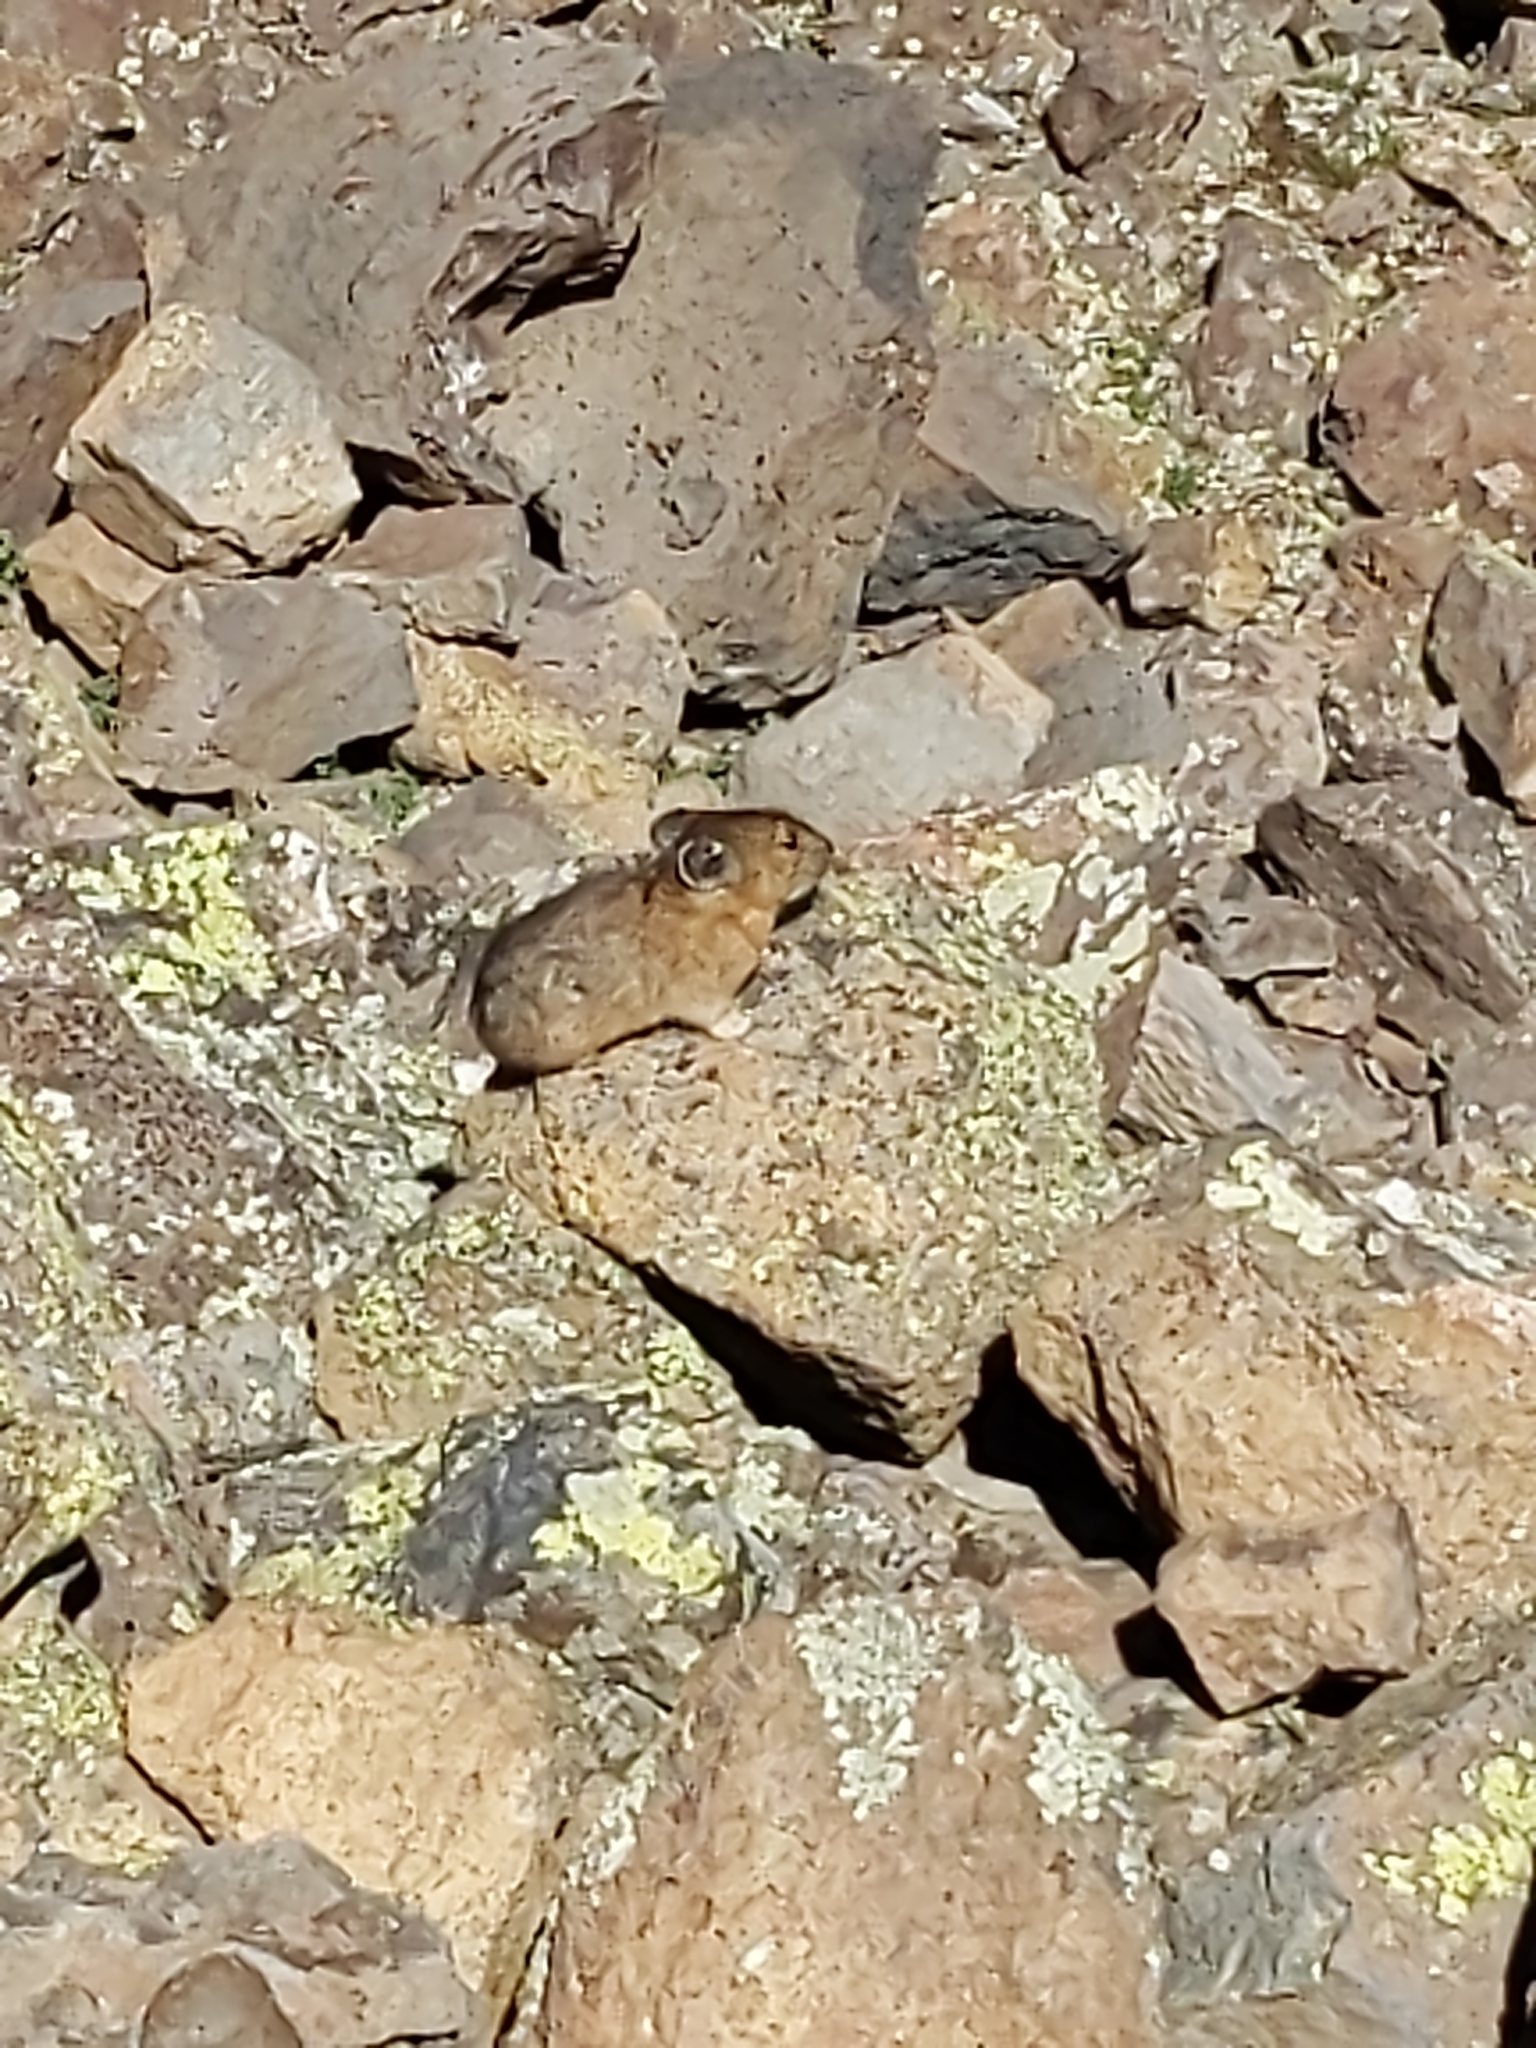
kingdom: Animalia
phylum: Chordata
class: Mammalia
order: Lagomorpha
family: Ochotonidae
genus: Ochotona
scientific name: Ochotona princeps
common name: American pika
